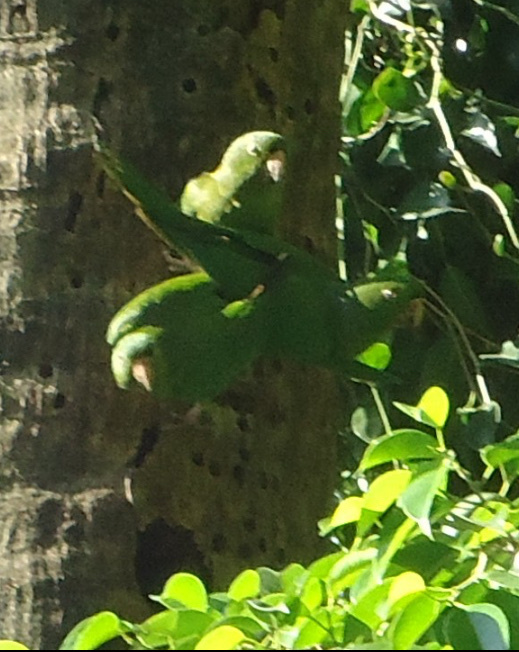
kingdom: Animalia
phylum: Chordata
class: Aves
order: Psittaciformes
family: Psittacidae
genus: Aratinga
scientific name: Aratinga strenua
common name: Pacific parakeet
